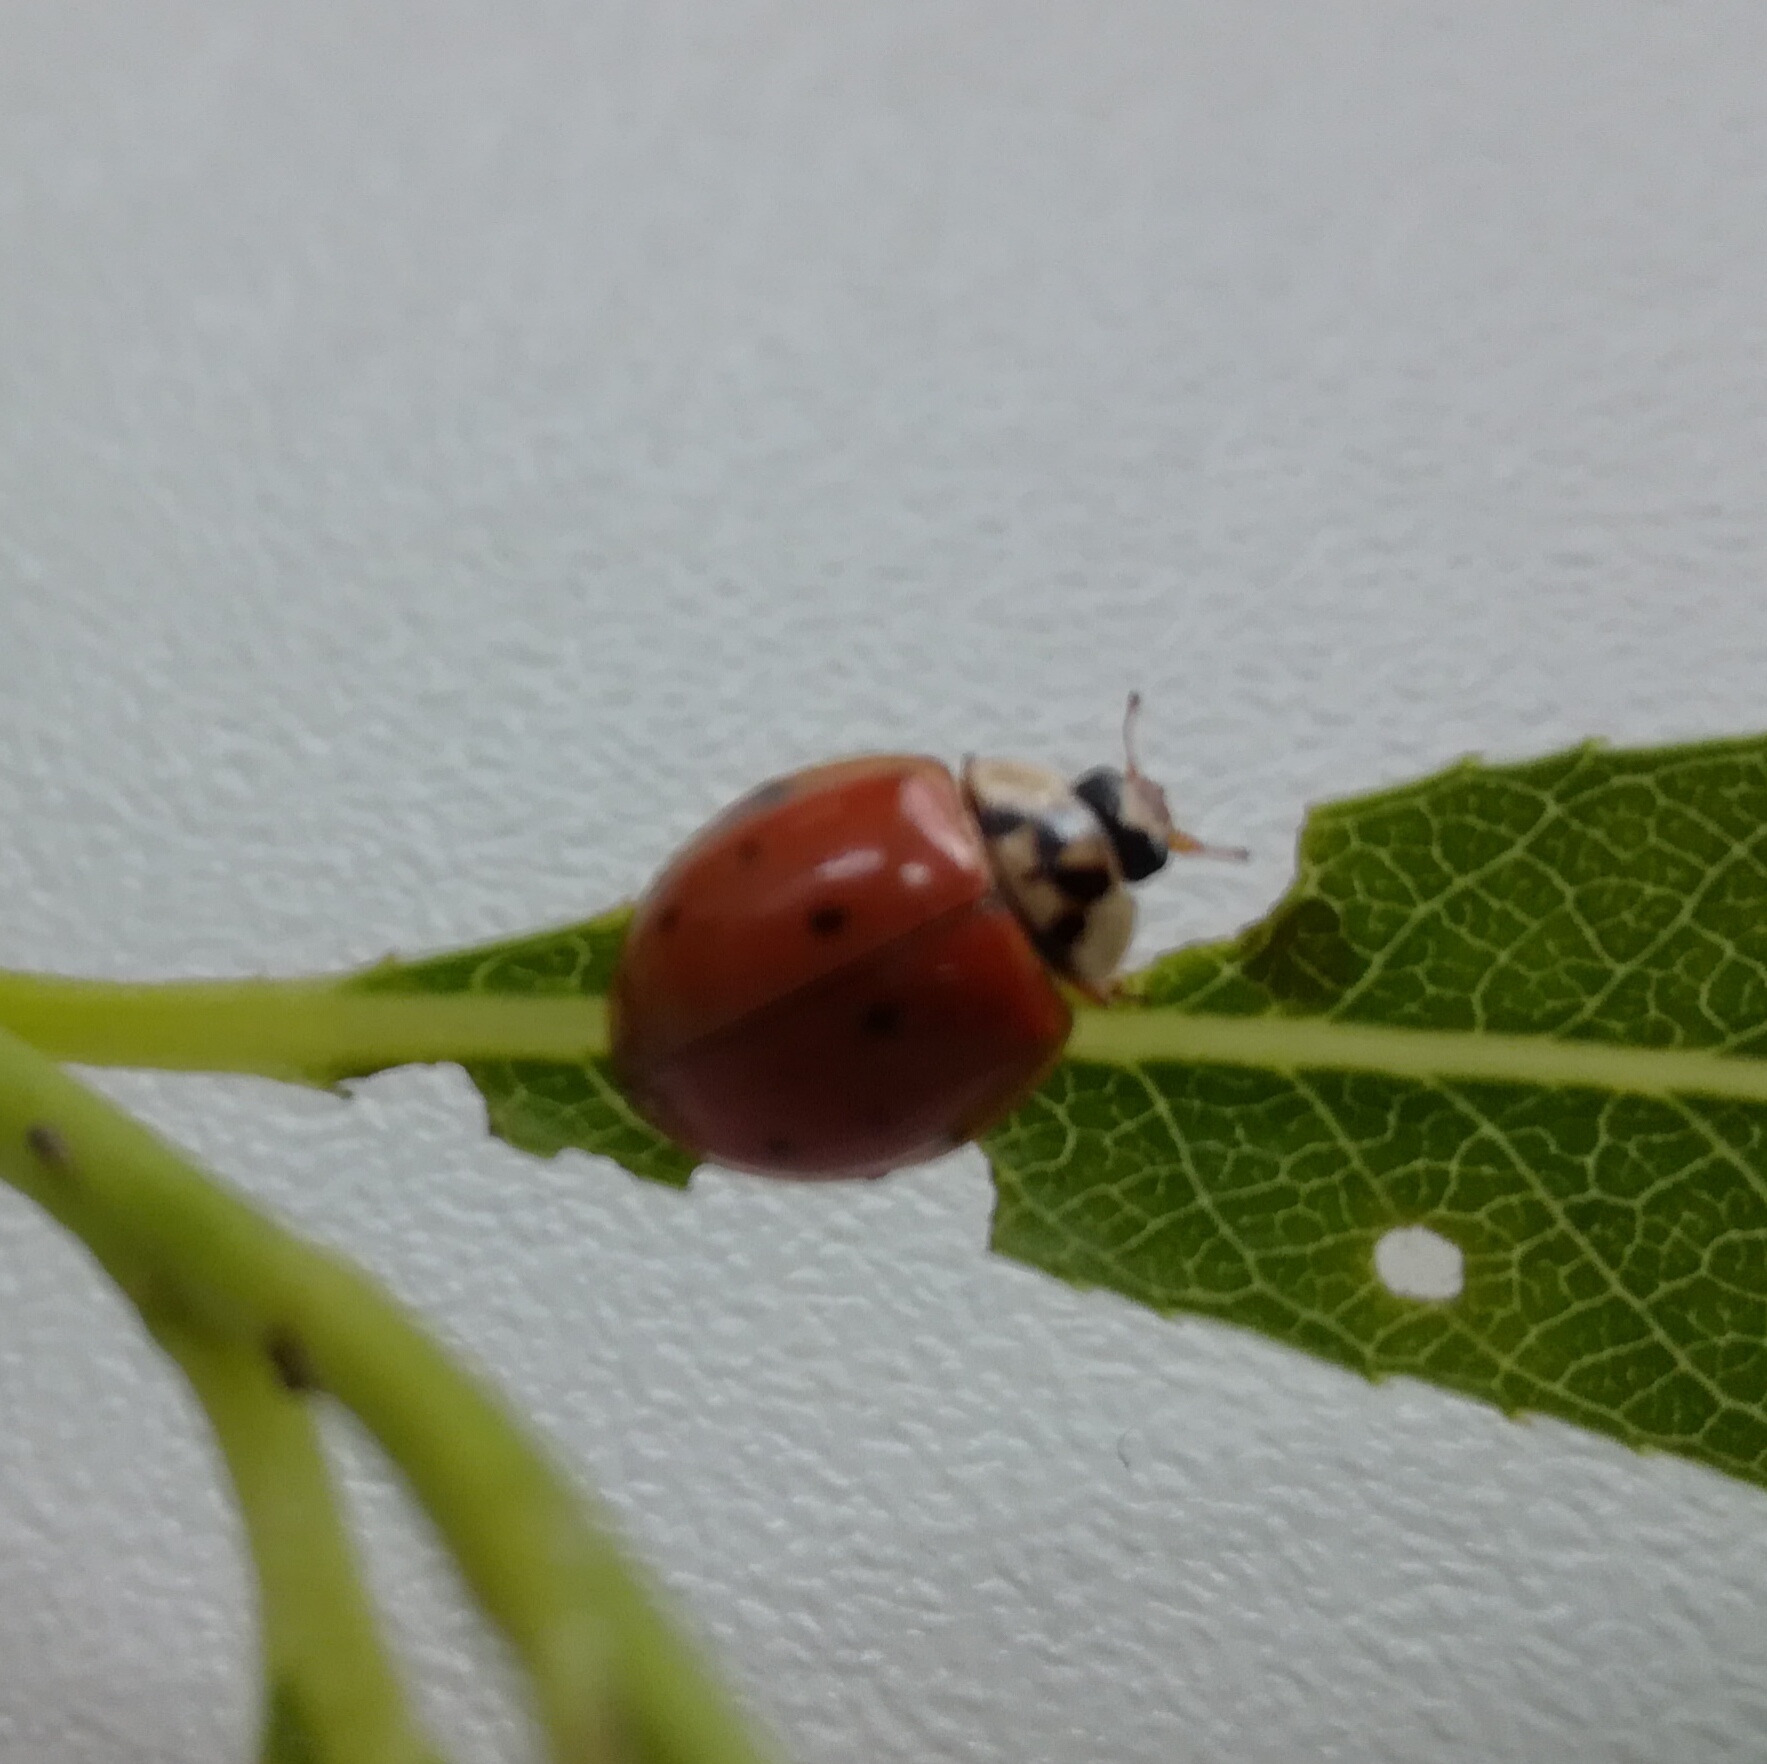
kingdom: Animalia
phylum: Arthropoda
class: Insecta
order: Coleoptera
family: Coccinellidae
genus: Harmonia
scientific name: Harmonia axyridis
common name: Harlequin ladybird
